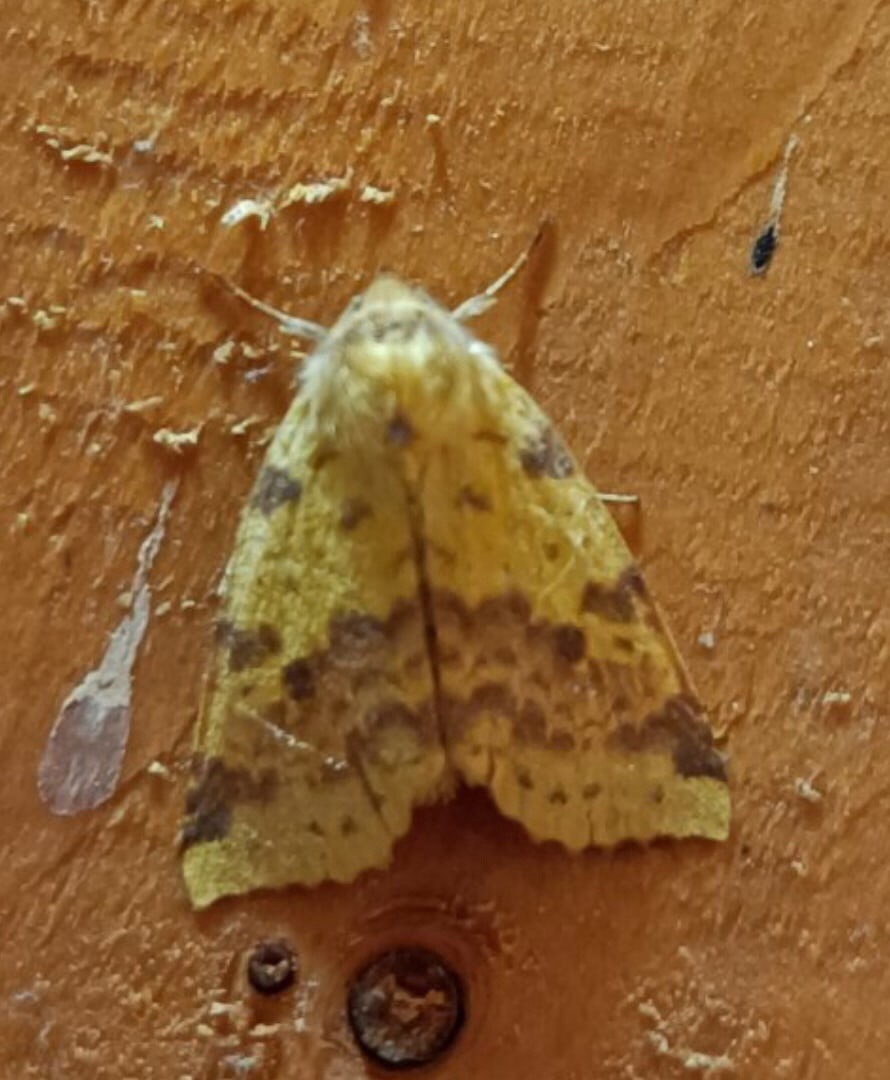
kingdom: Animalia
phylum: Arthropoda
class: Insecta
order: Lepidoptera
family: Noctuidae
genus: Xanthia
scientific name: Xanthia togata
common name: Pink-barred sallow
